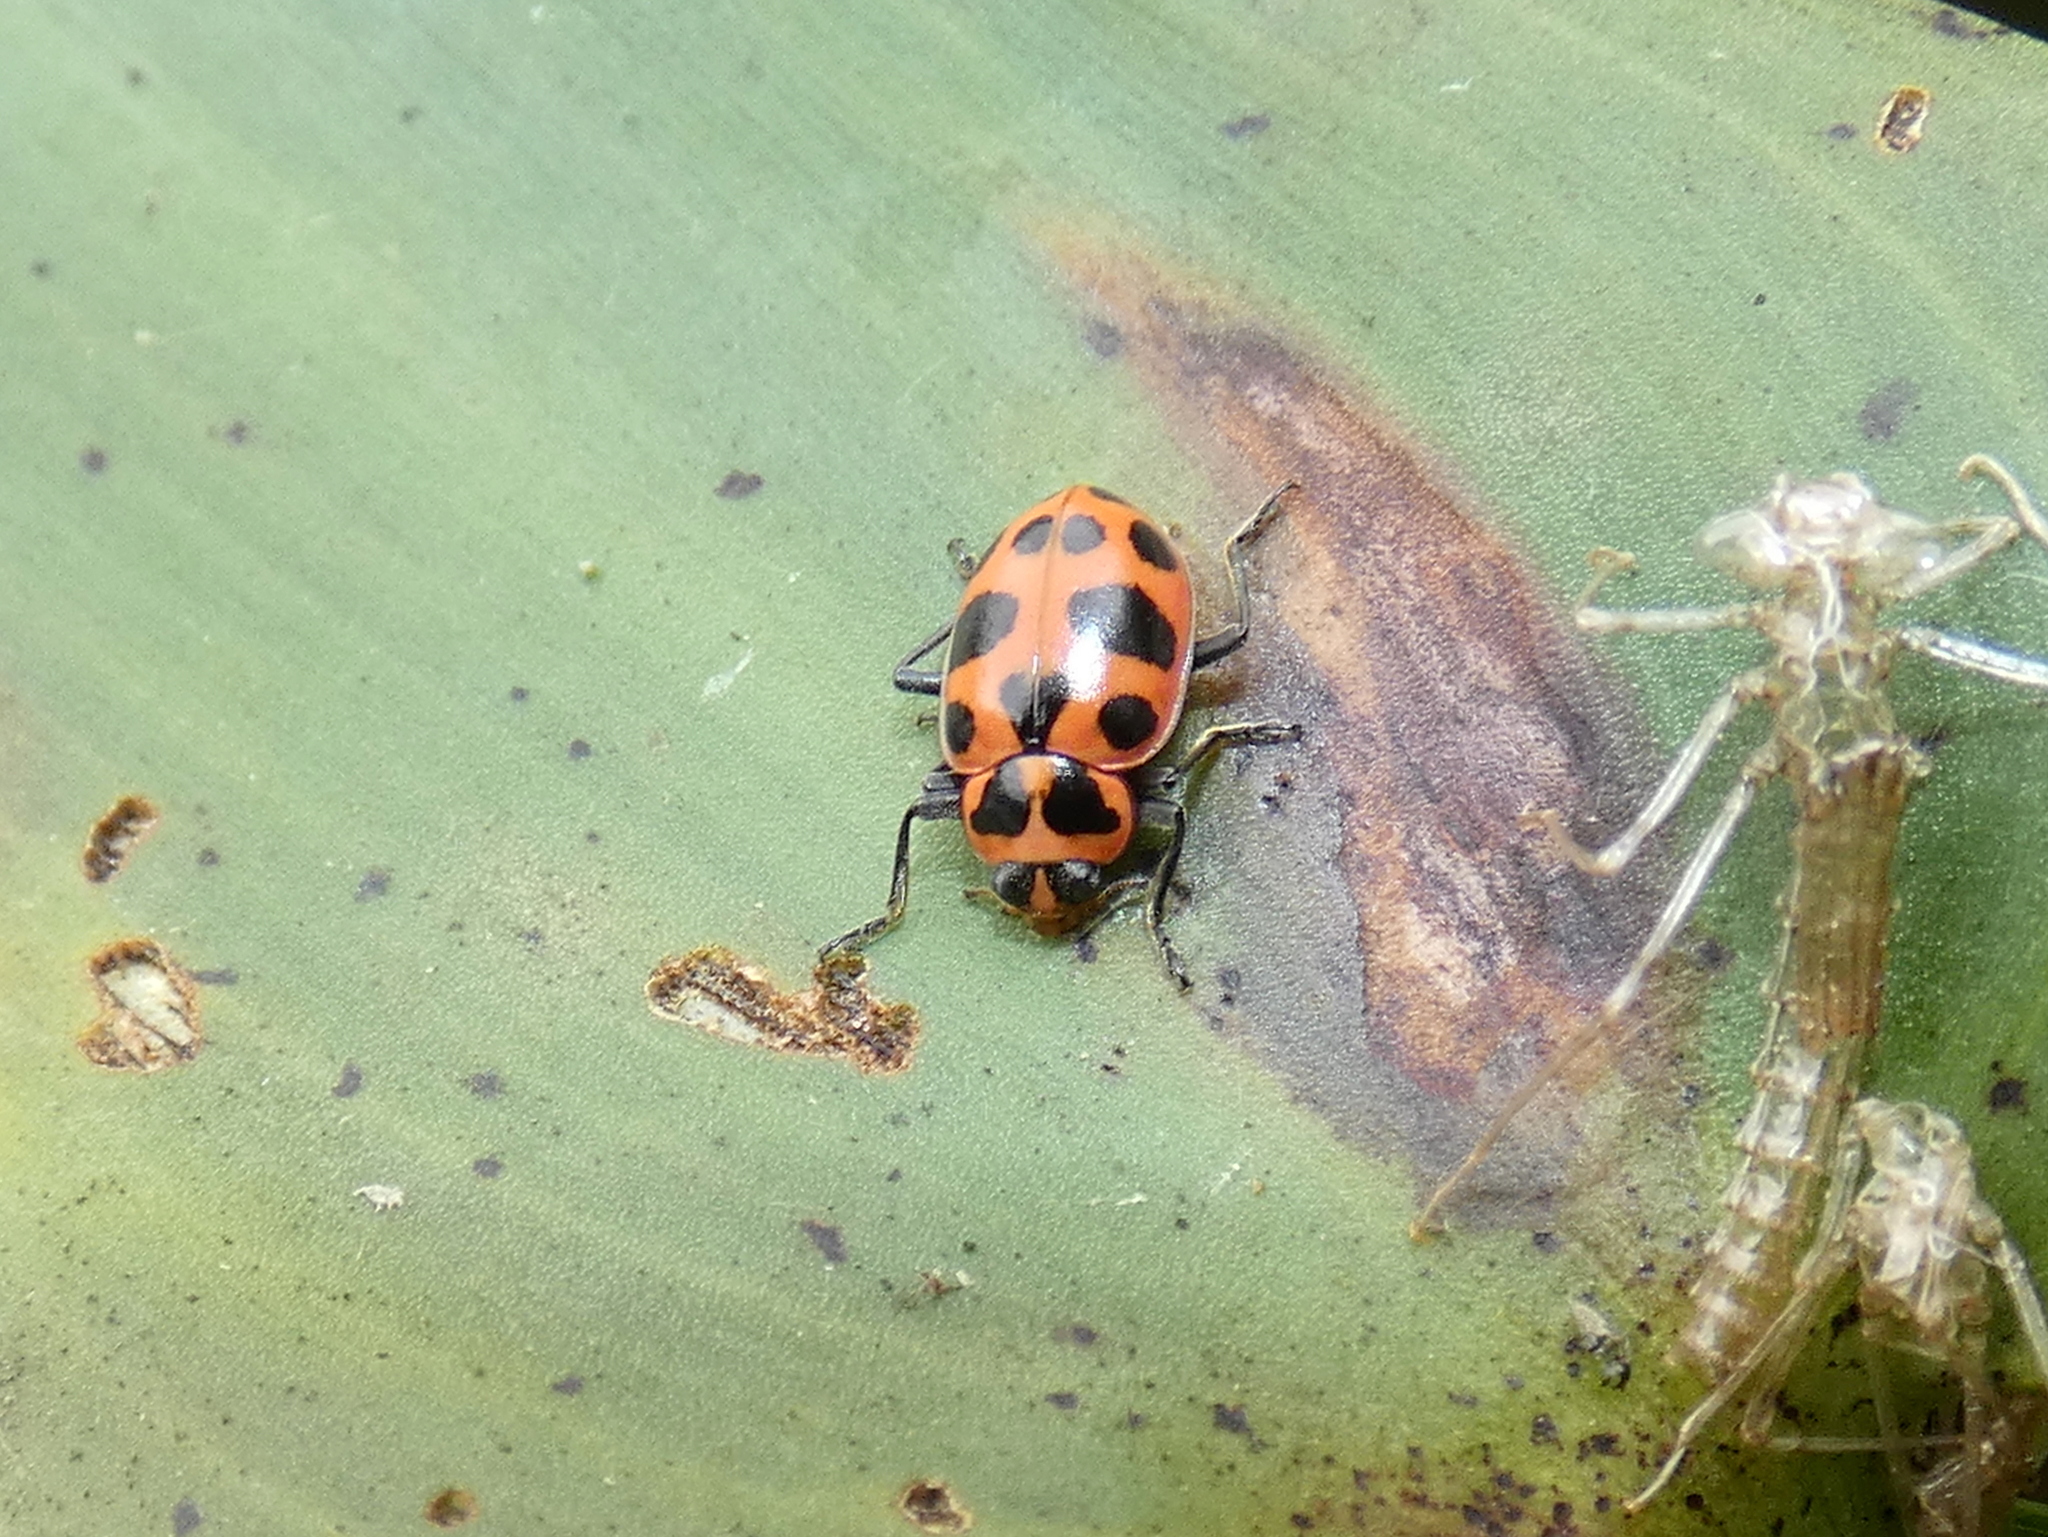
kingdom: Animalia
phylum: Arthropoda
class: Insecta
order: Coleoptera
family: Coccinellidae
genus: Coleomegilla
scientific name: Coleomegilla maculata
